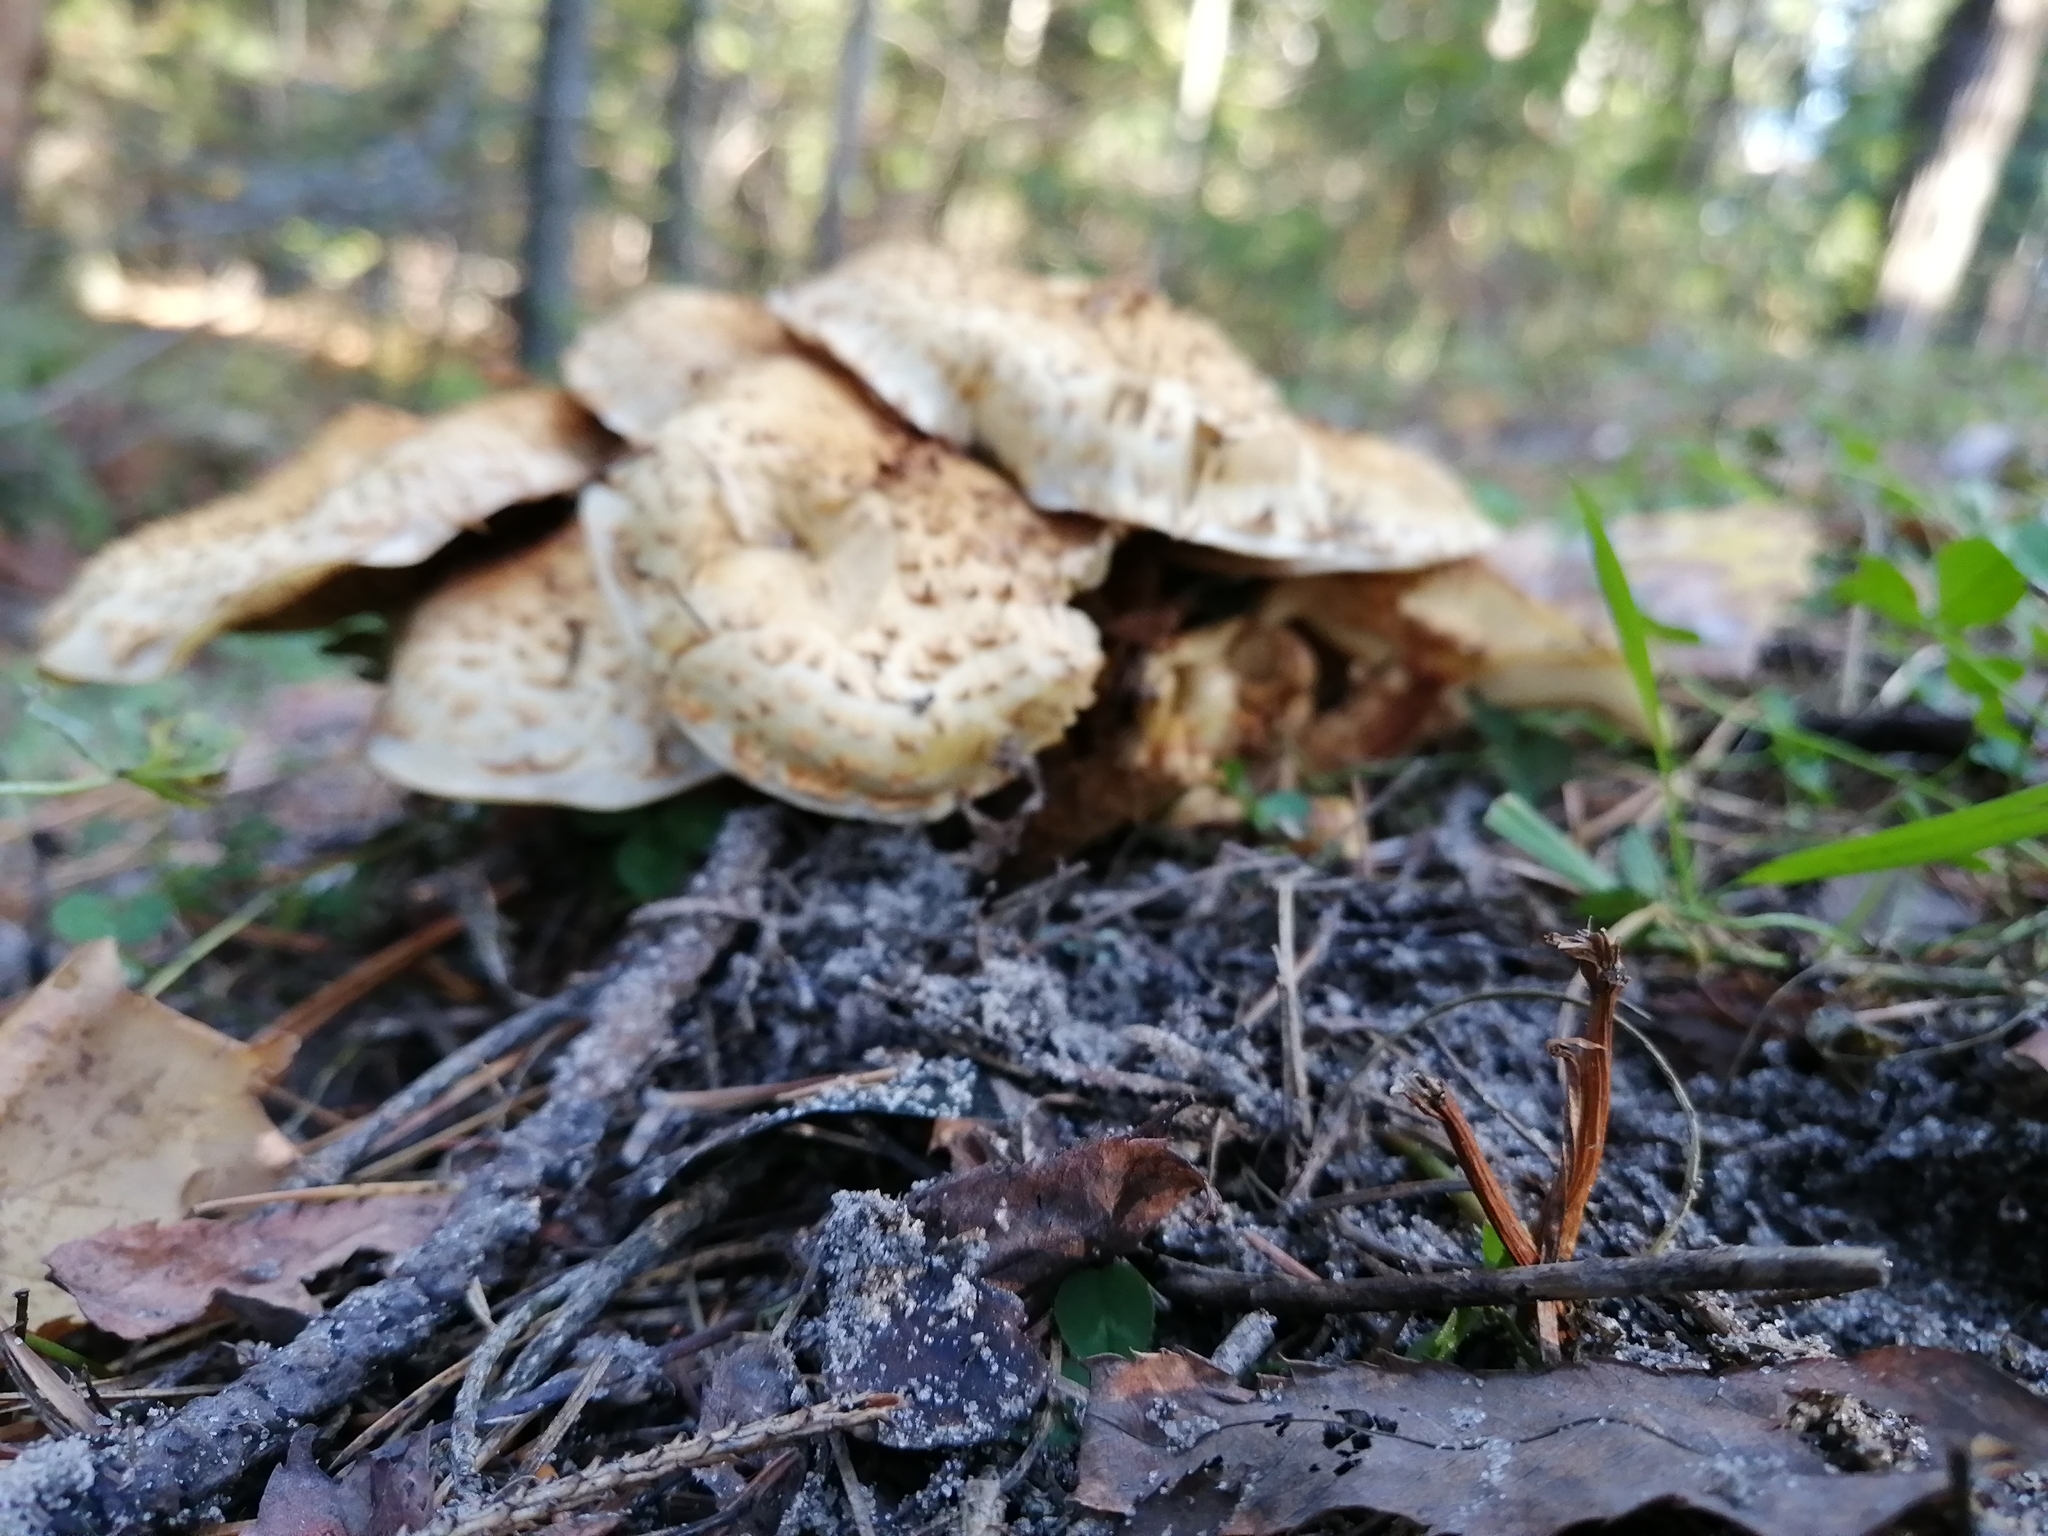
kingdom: Fungi
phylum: Basidiomycota
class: Agaricomycetes
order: Agaricales
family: Strophariaceae
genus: Pholiota
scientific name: Pholiota kodiakensis
